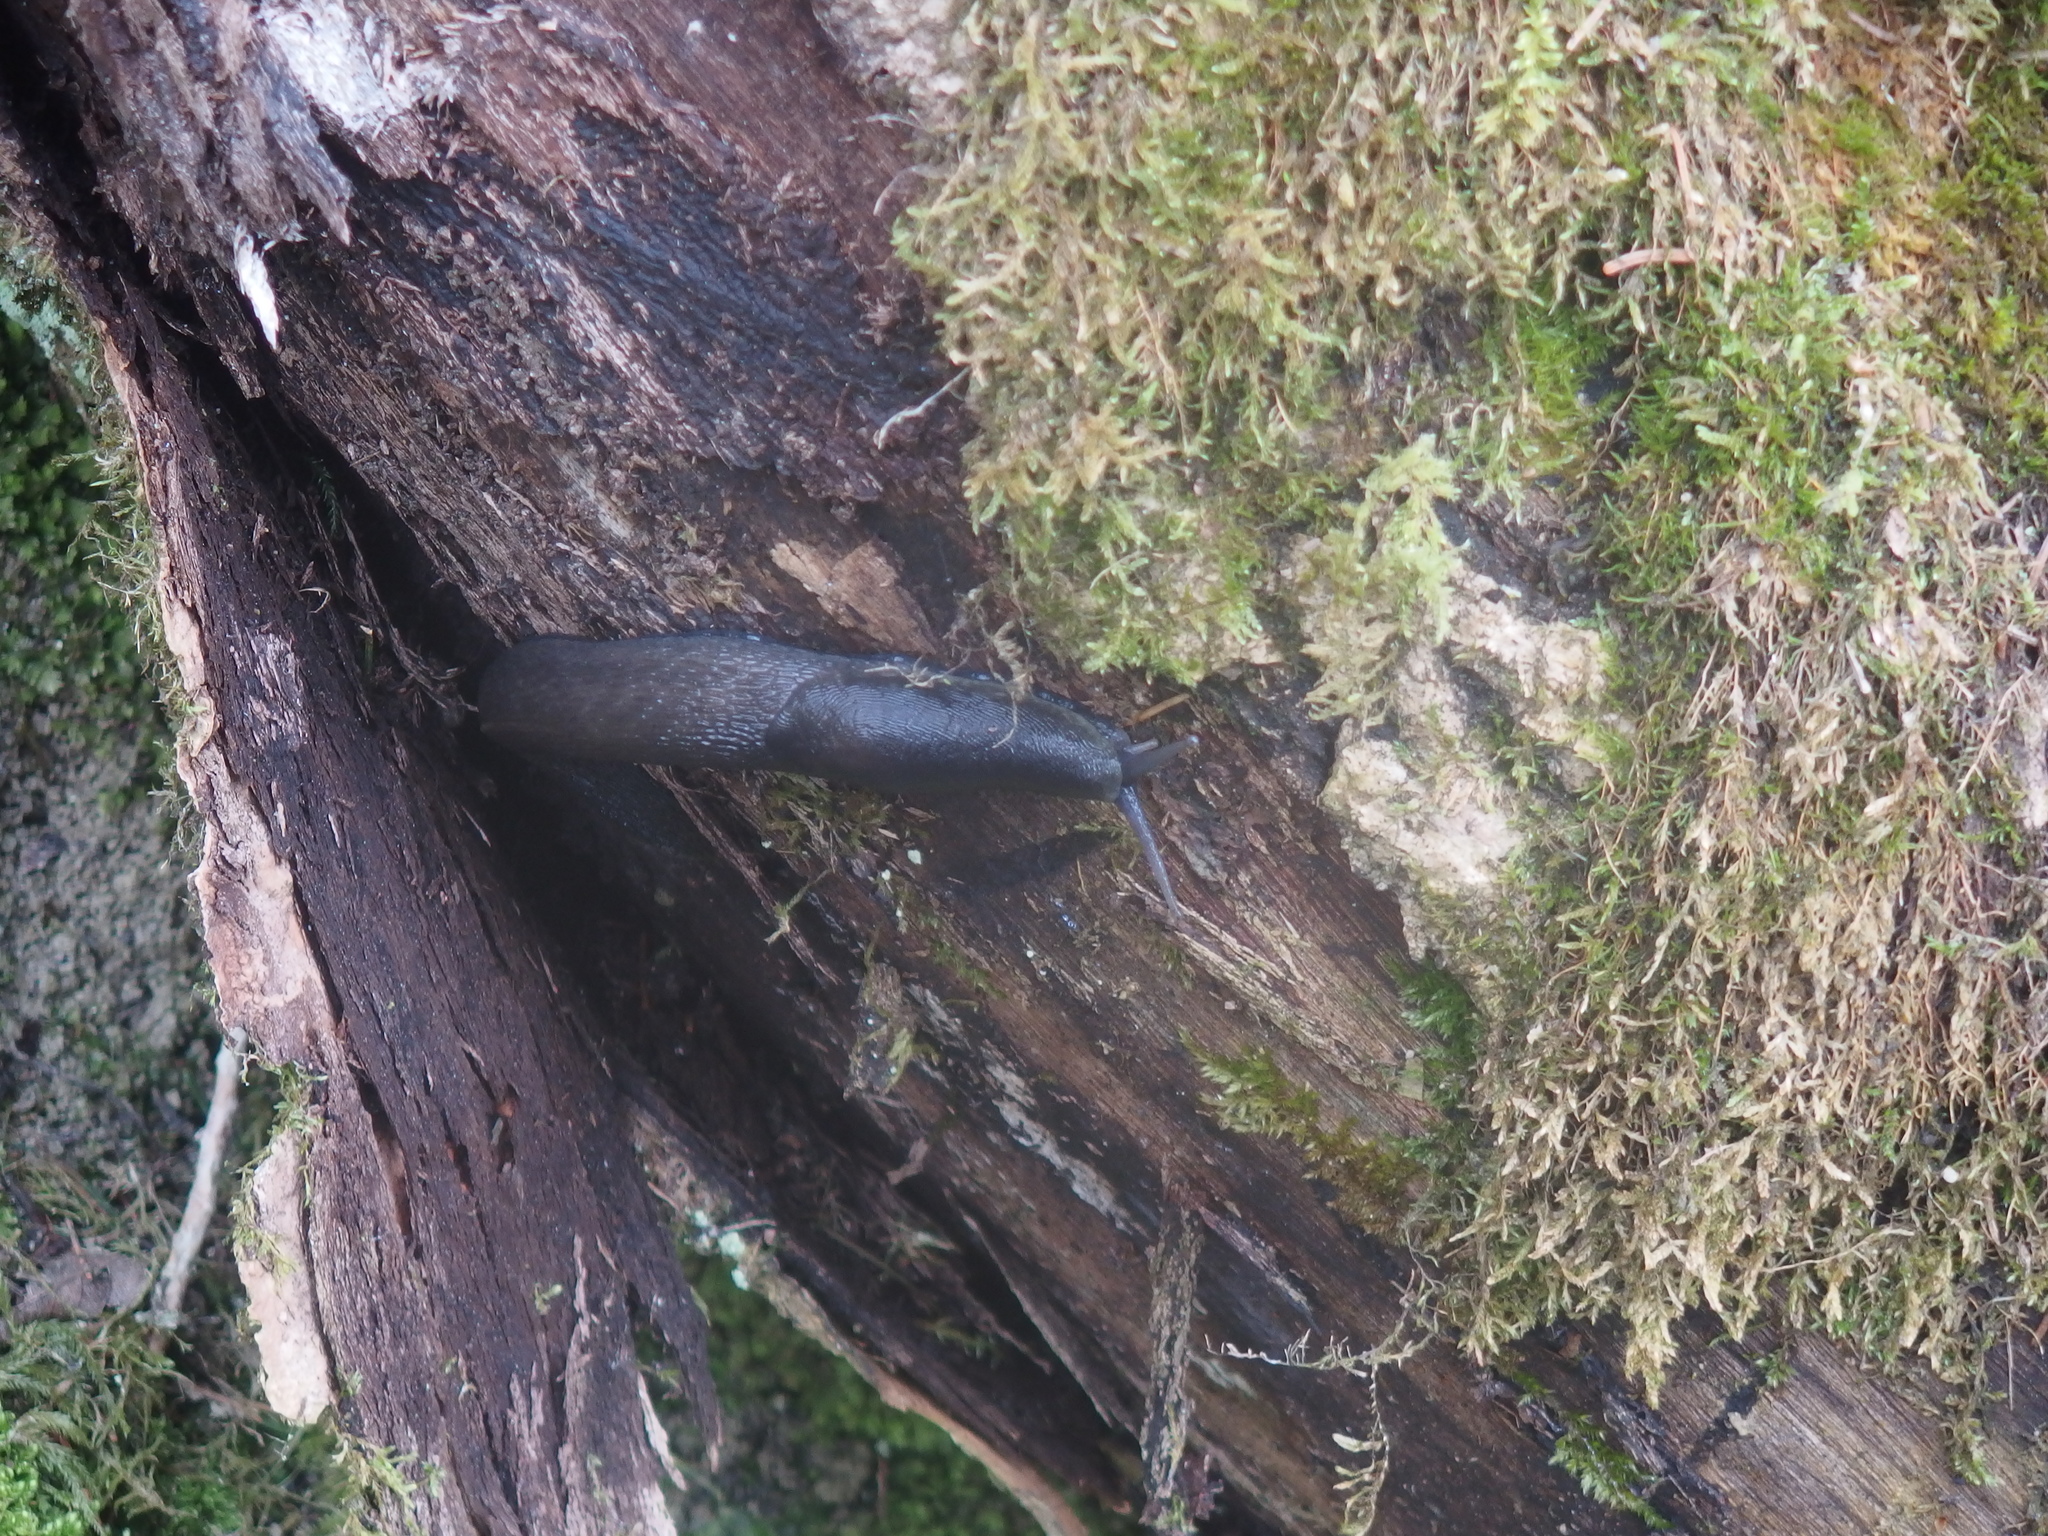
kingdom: Animalia
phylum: Mollusca
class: Gastropoda
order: Stylommatophora
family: Limacidae
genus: Limax
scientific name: Limax cinereoniger
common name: Ash-black slug
